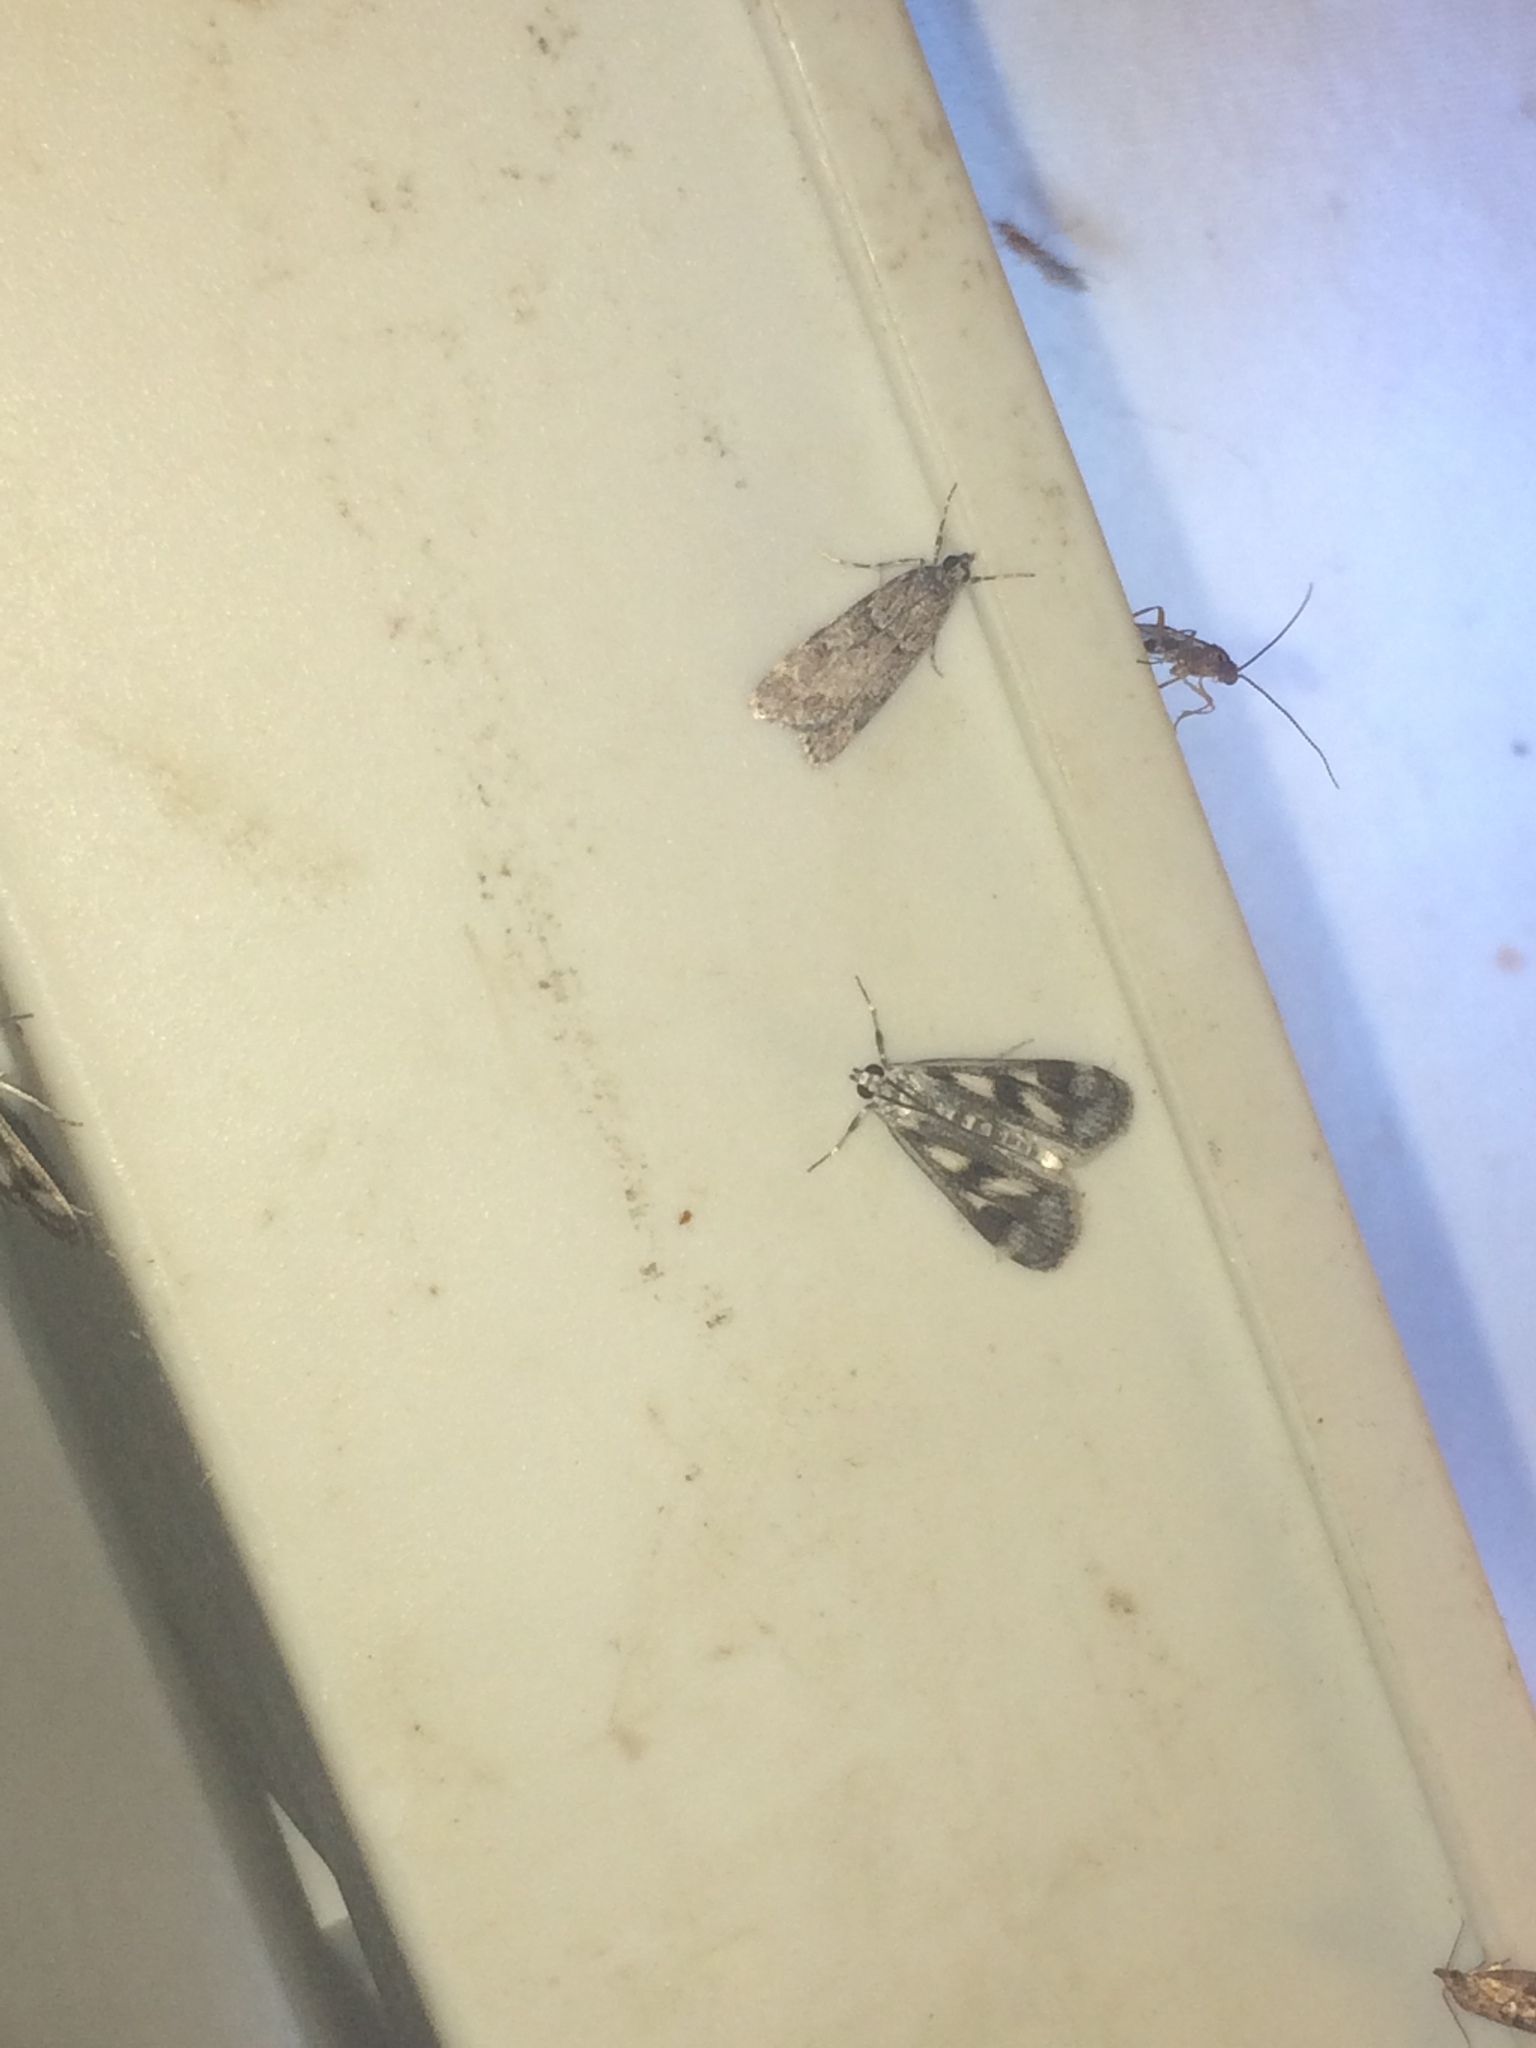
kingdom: Animalia
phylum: Arthropoda
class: Insecta
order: Lepidoptera
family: Crambidae
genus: Parapoynx
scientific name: Parapoynx maculalis
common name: Polymorphic pondweed moth
